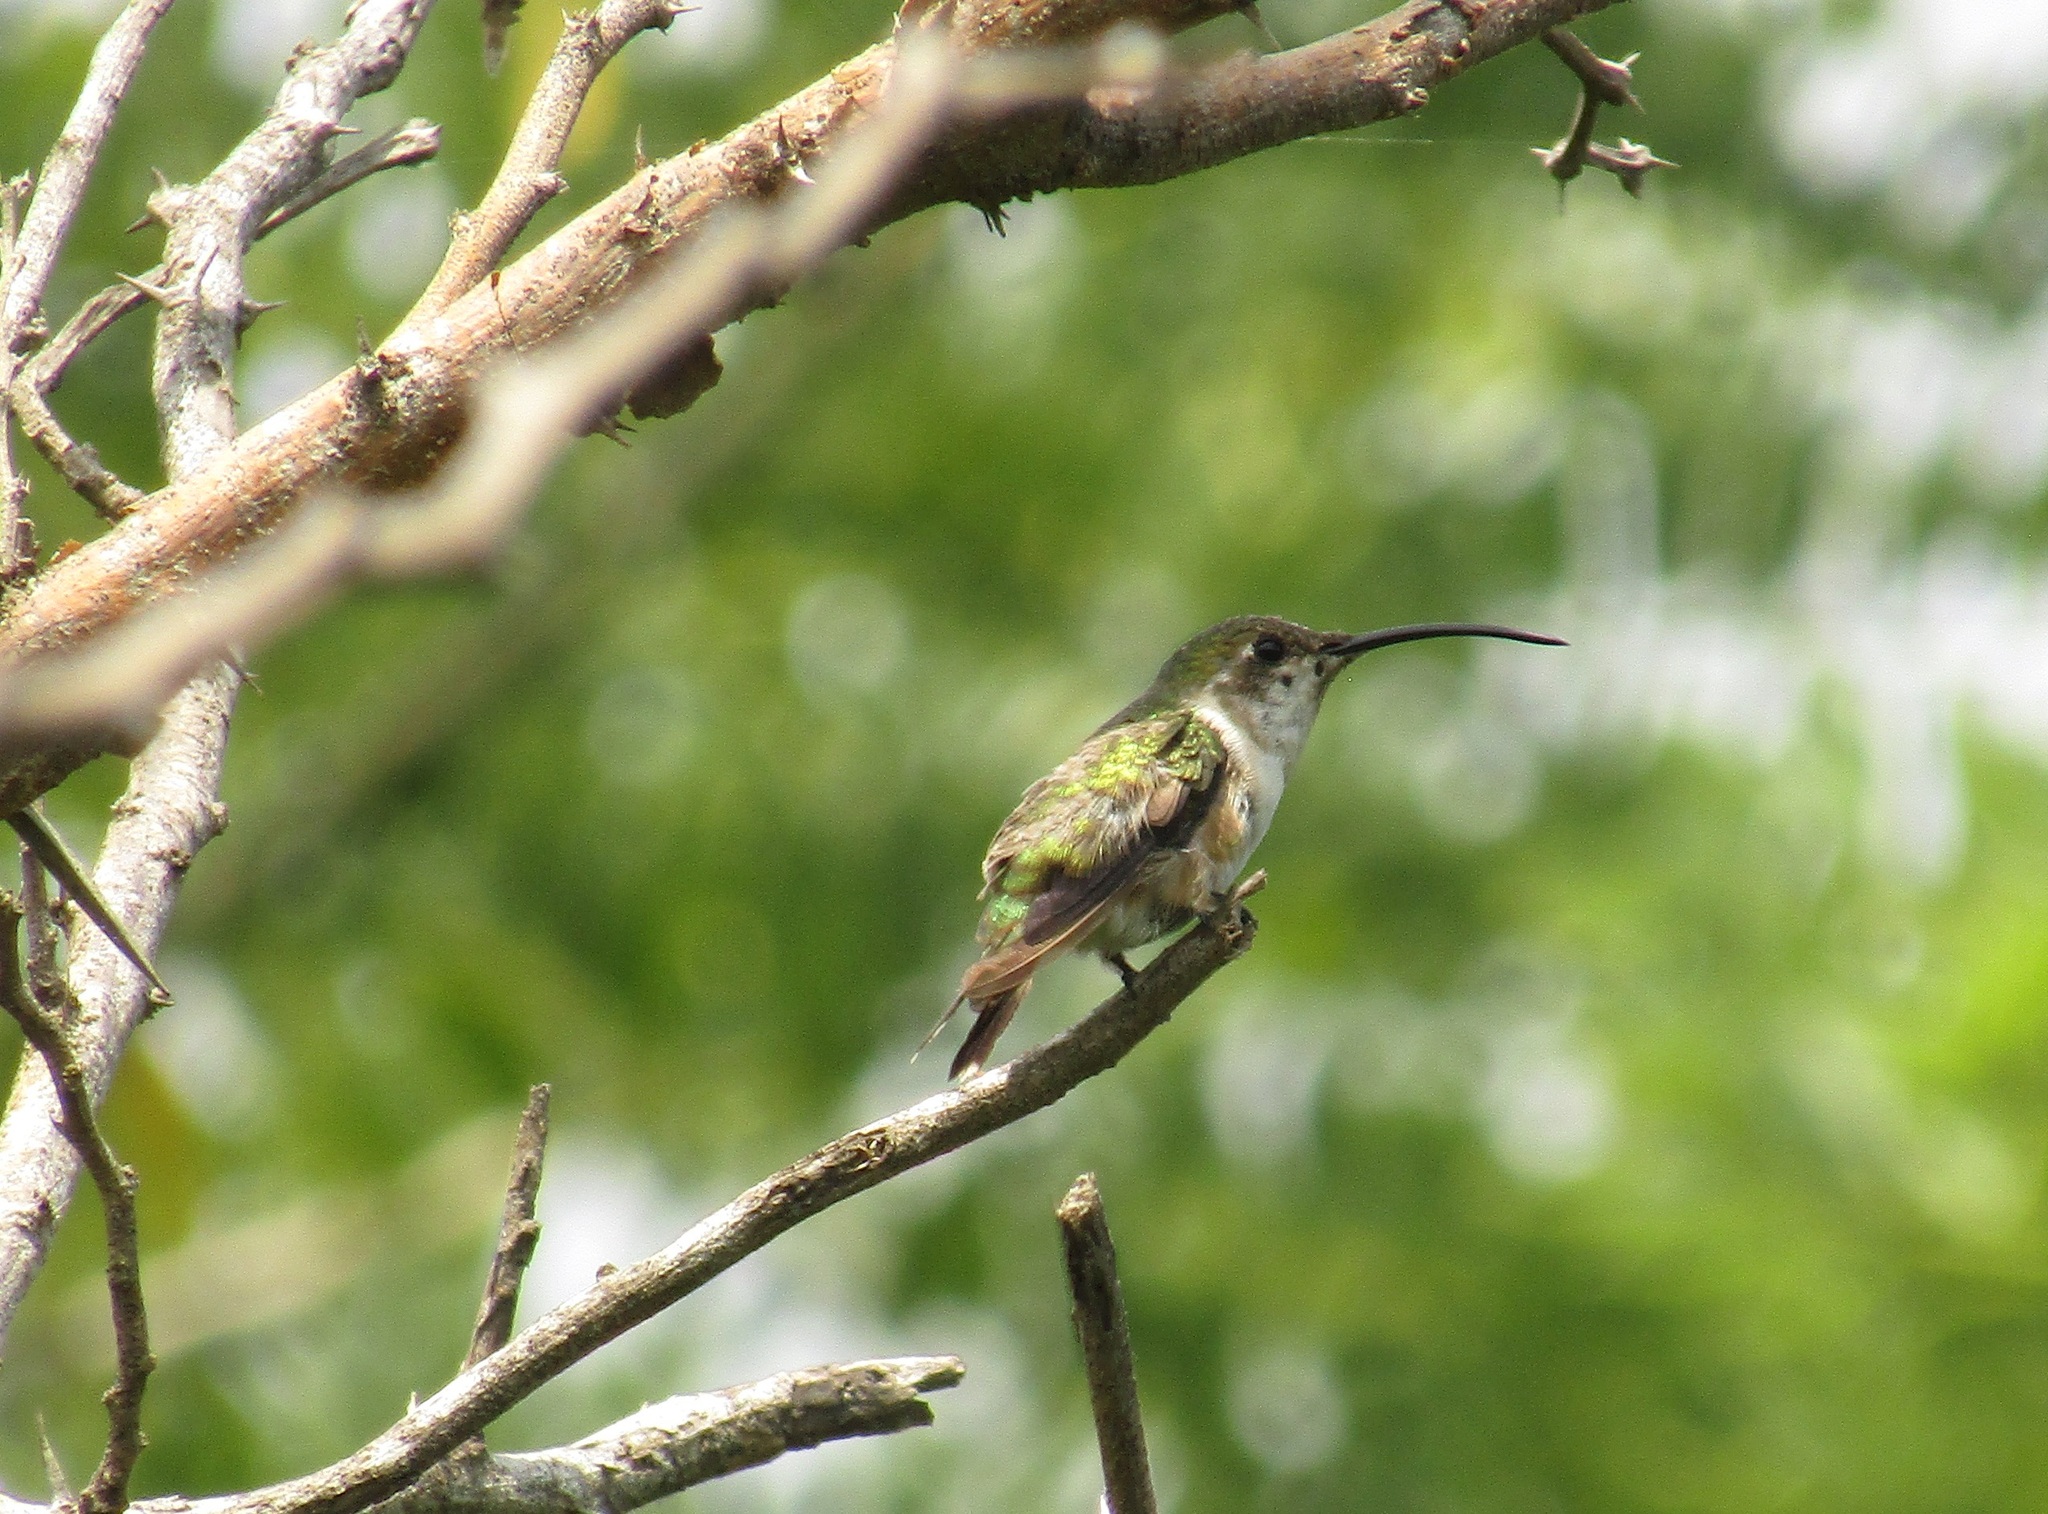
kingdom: Animalia
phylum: Chordata
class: Aves
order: Apodiformes
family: Trochilidae
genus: Doricha
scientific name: Doricha eliza
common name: Mexican sheartail
